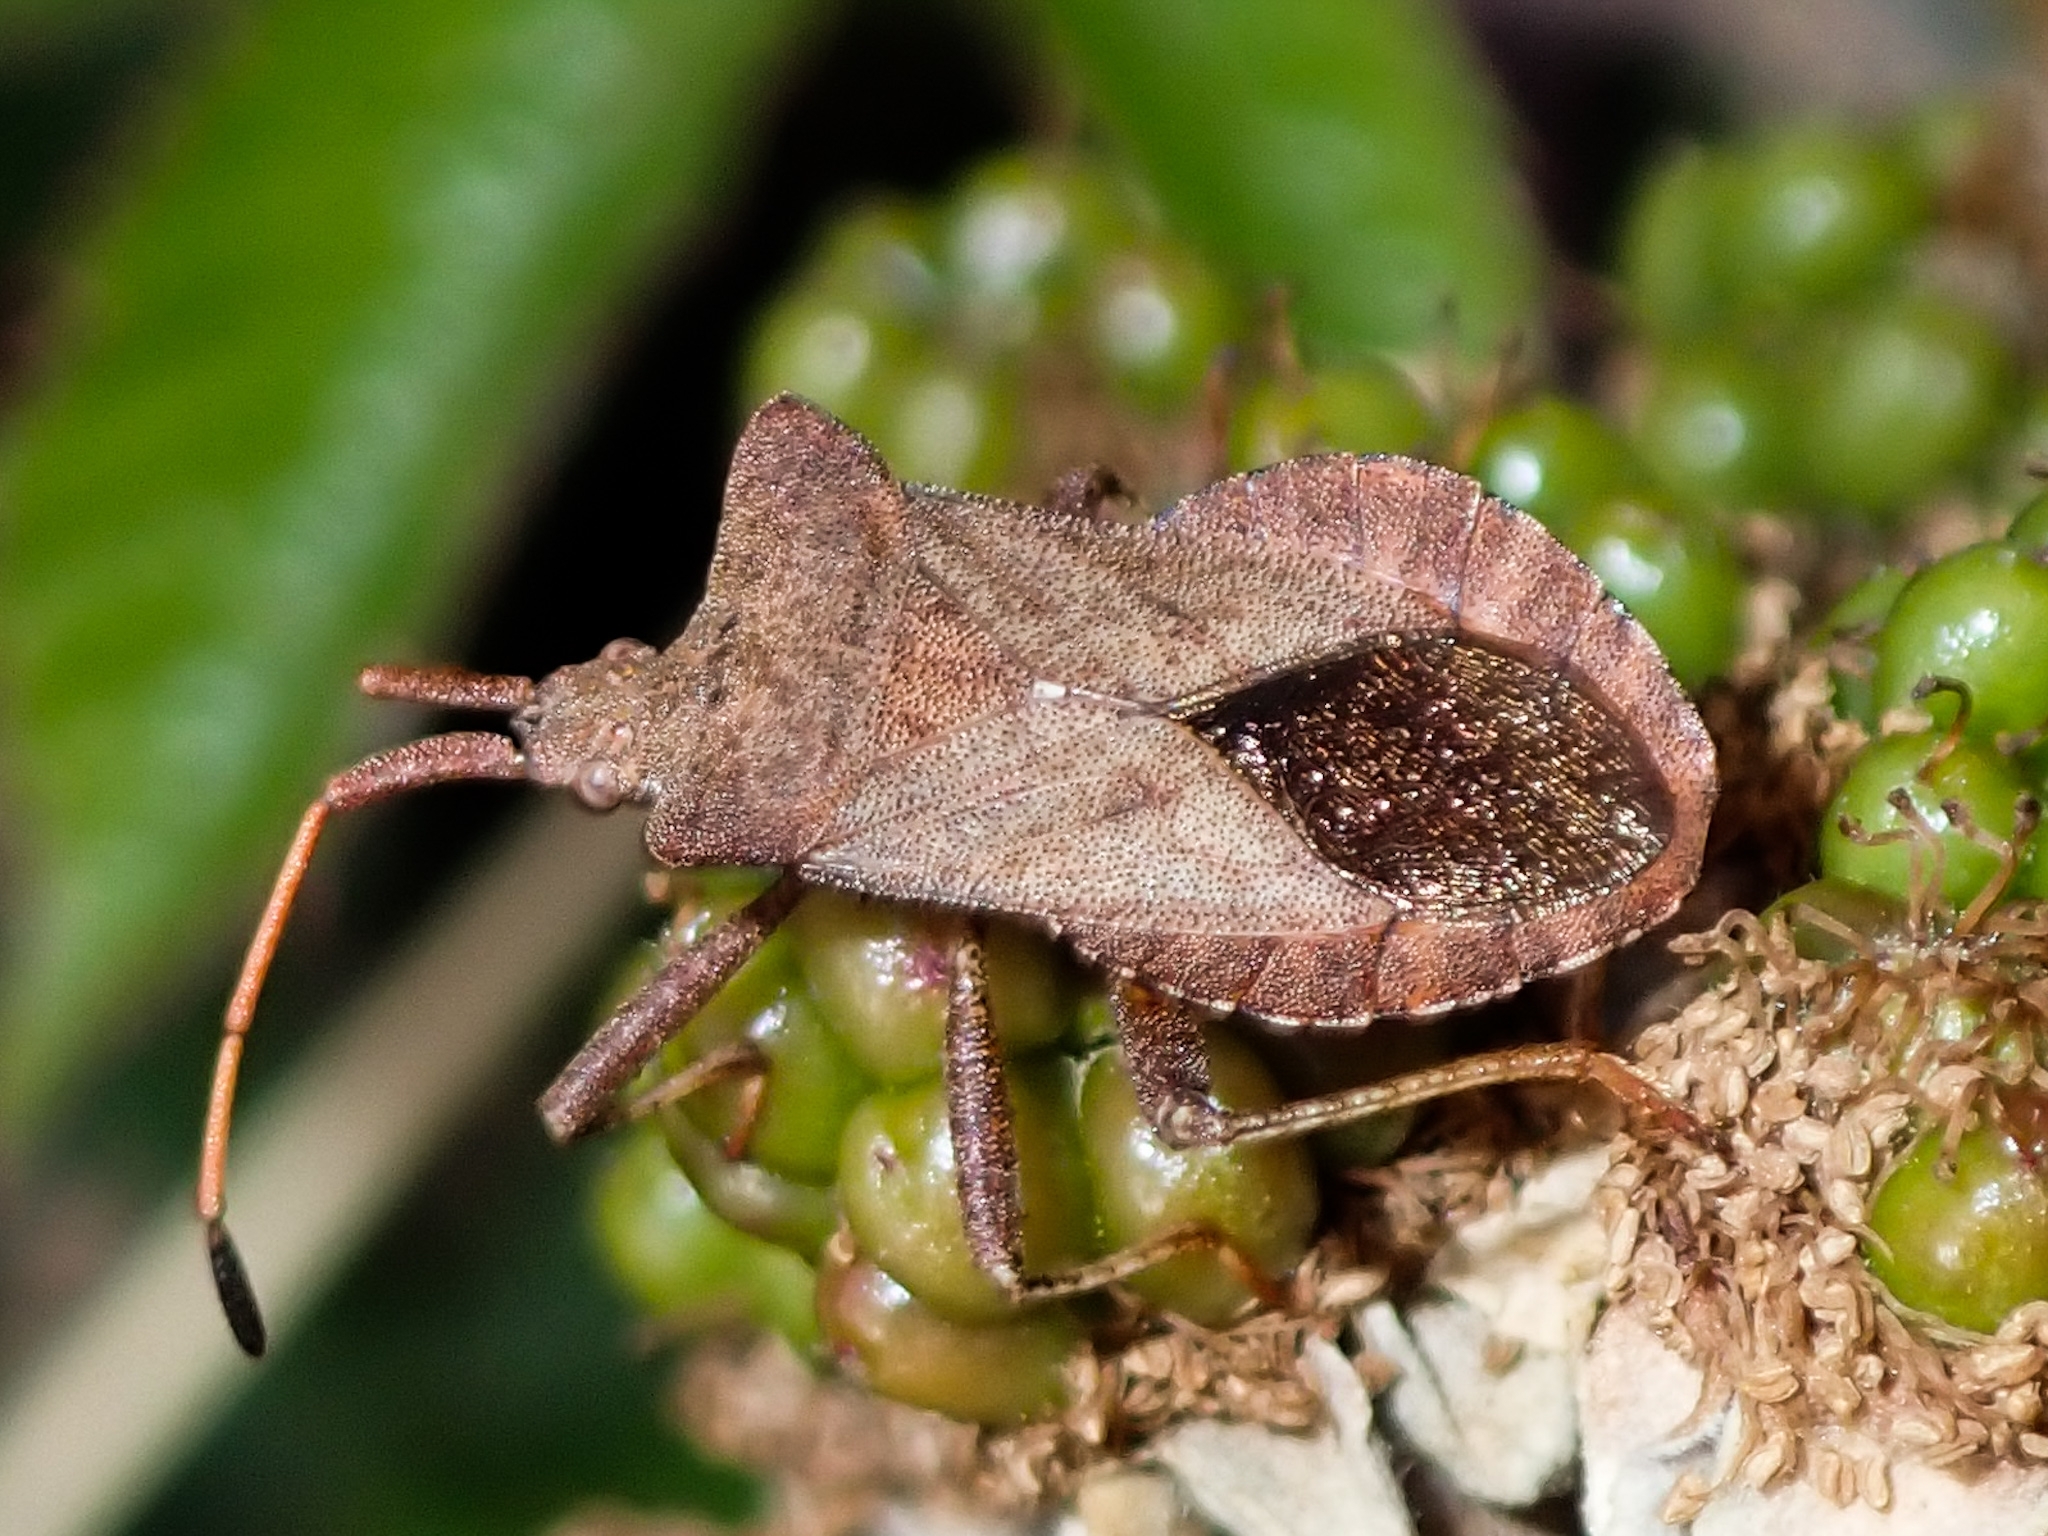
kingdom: Animalia
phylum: Arthropoda
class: Insecta
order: Hemiptera
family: Coreidae
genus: Coreus
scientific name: Coreus marginatus
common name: Dock bug
